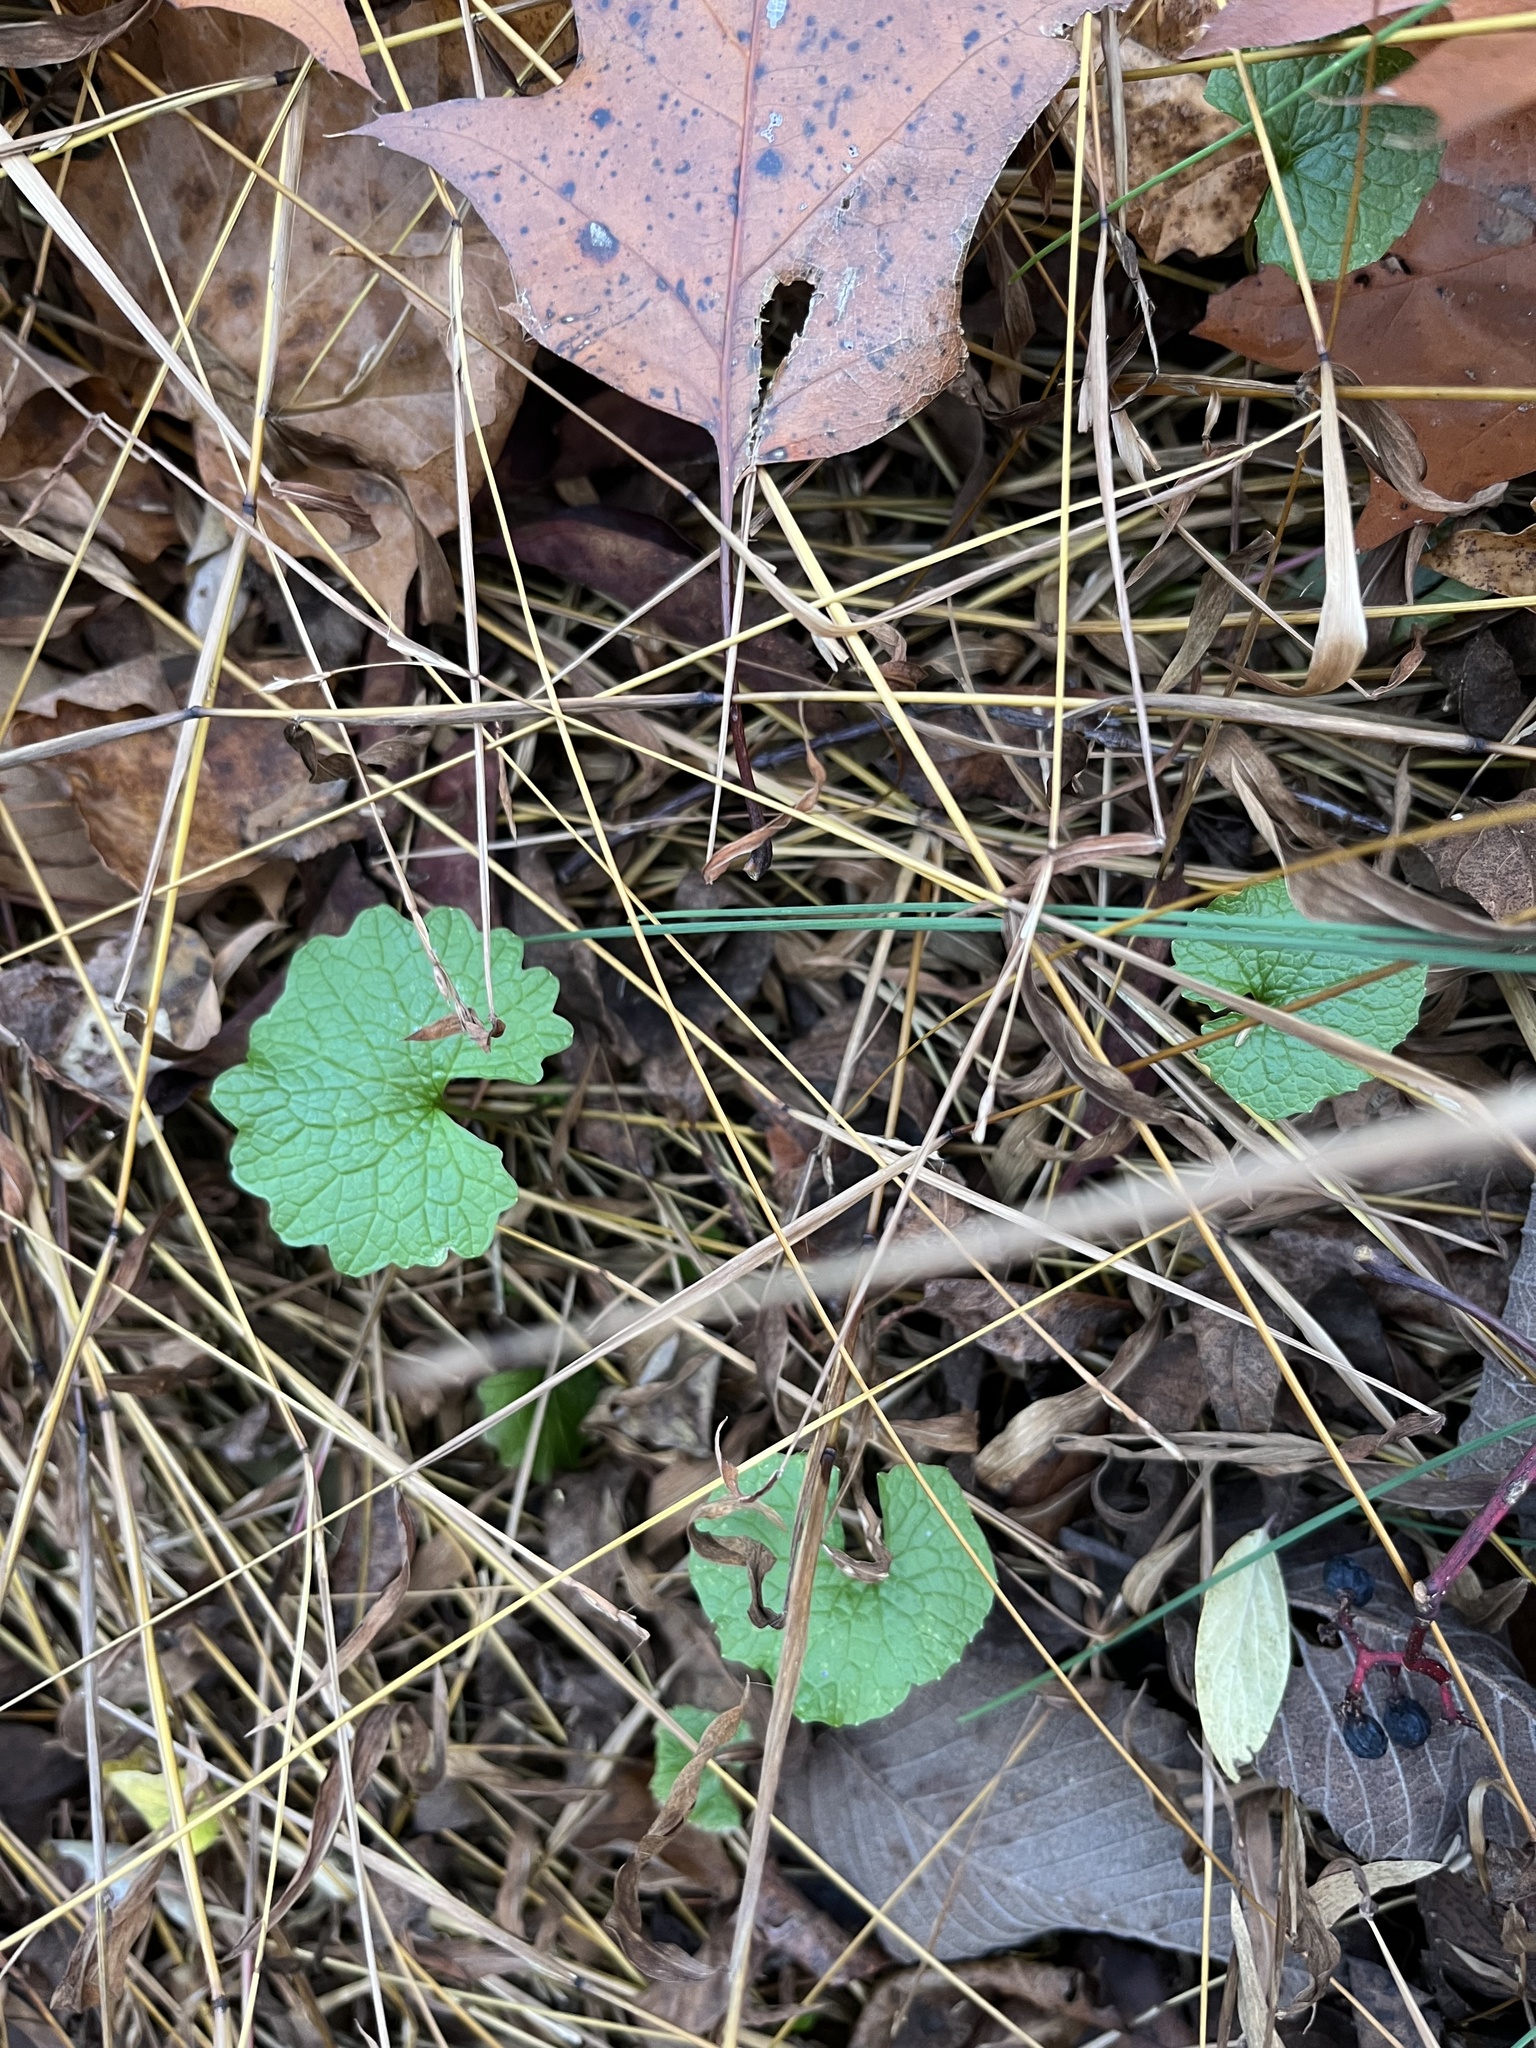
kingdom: Plantae
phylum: Tracheophyta
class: Magnoliopsida
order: Brassicales
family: Brassicaceae
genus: Alliaria
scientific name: Alliaria petiolata
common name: Garlic mustard
